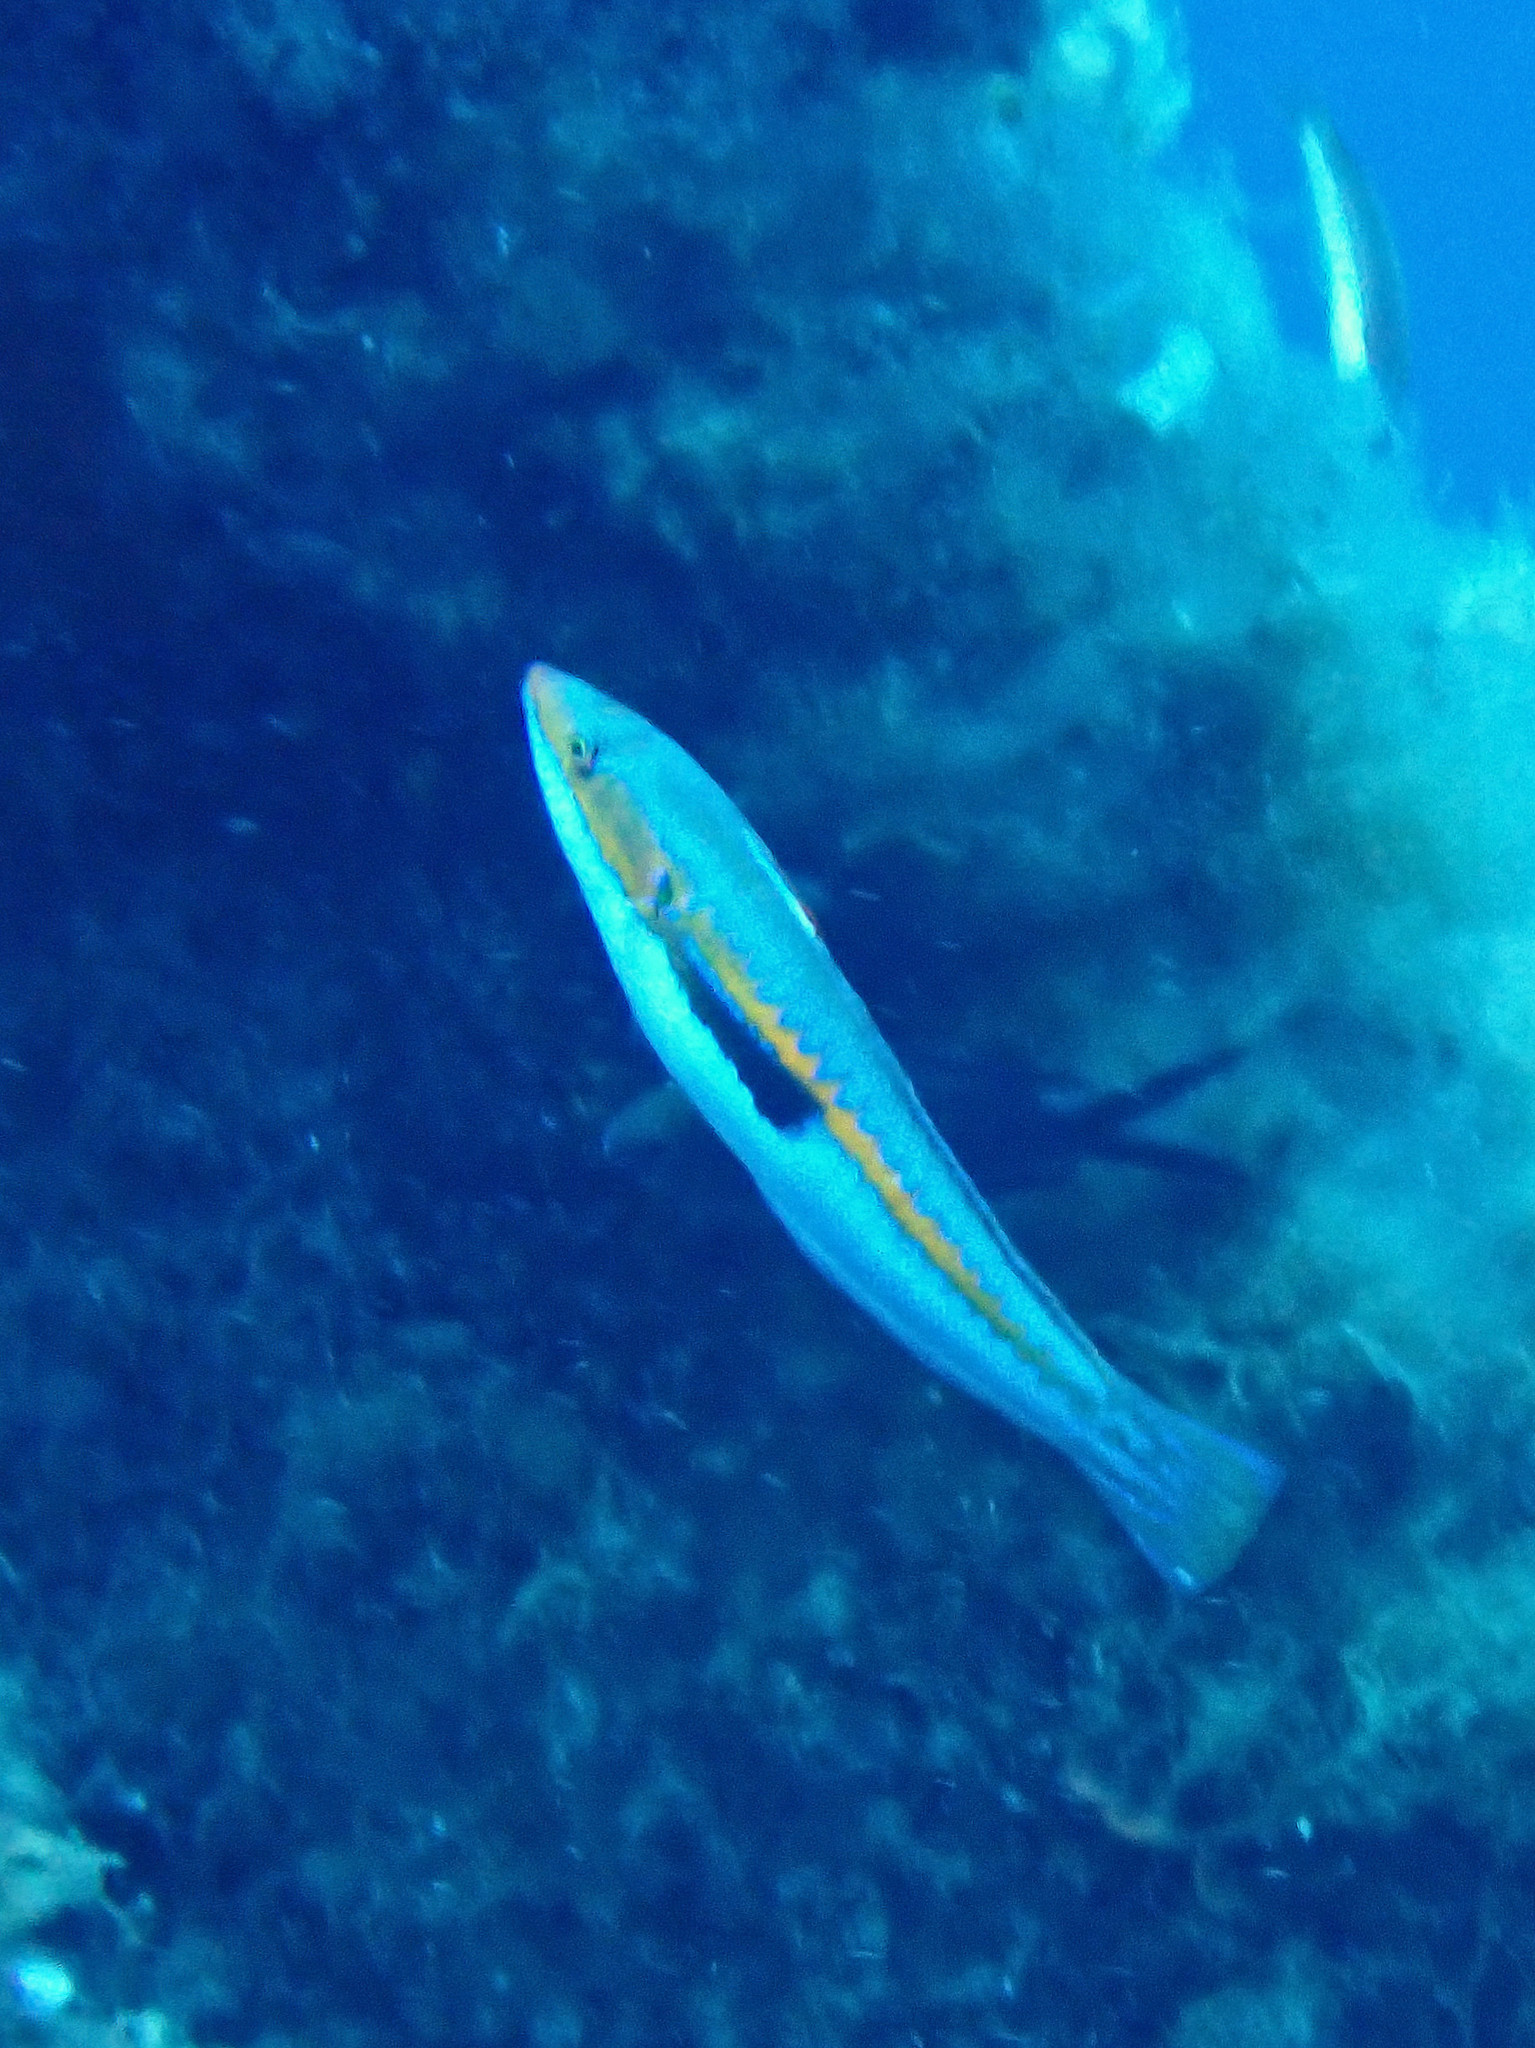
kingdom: Animalia
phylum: Chordata
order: Perciformes
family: Labridae
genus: Coris
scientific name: Coris julis
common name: Rainbow wrasse
